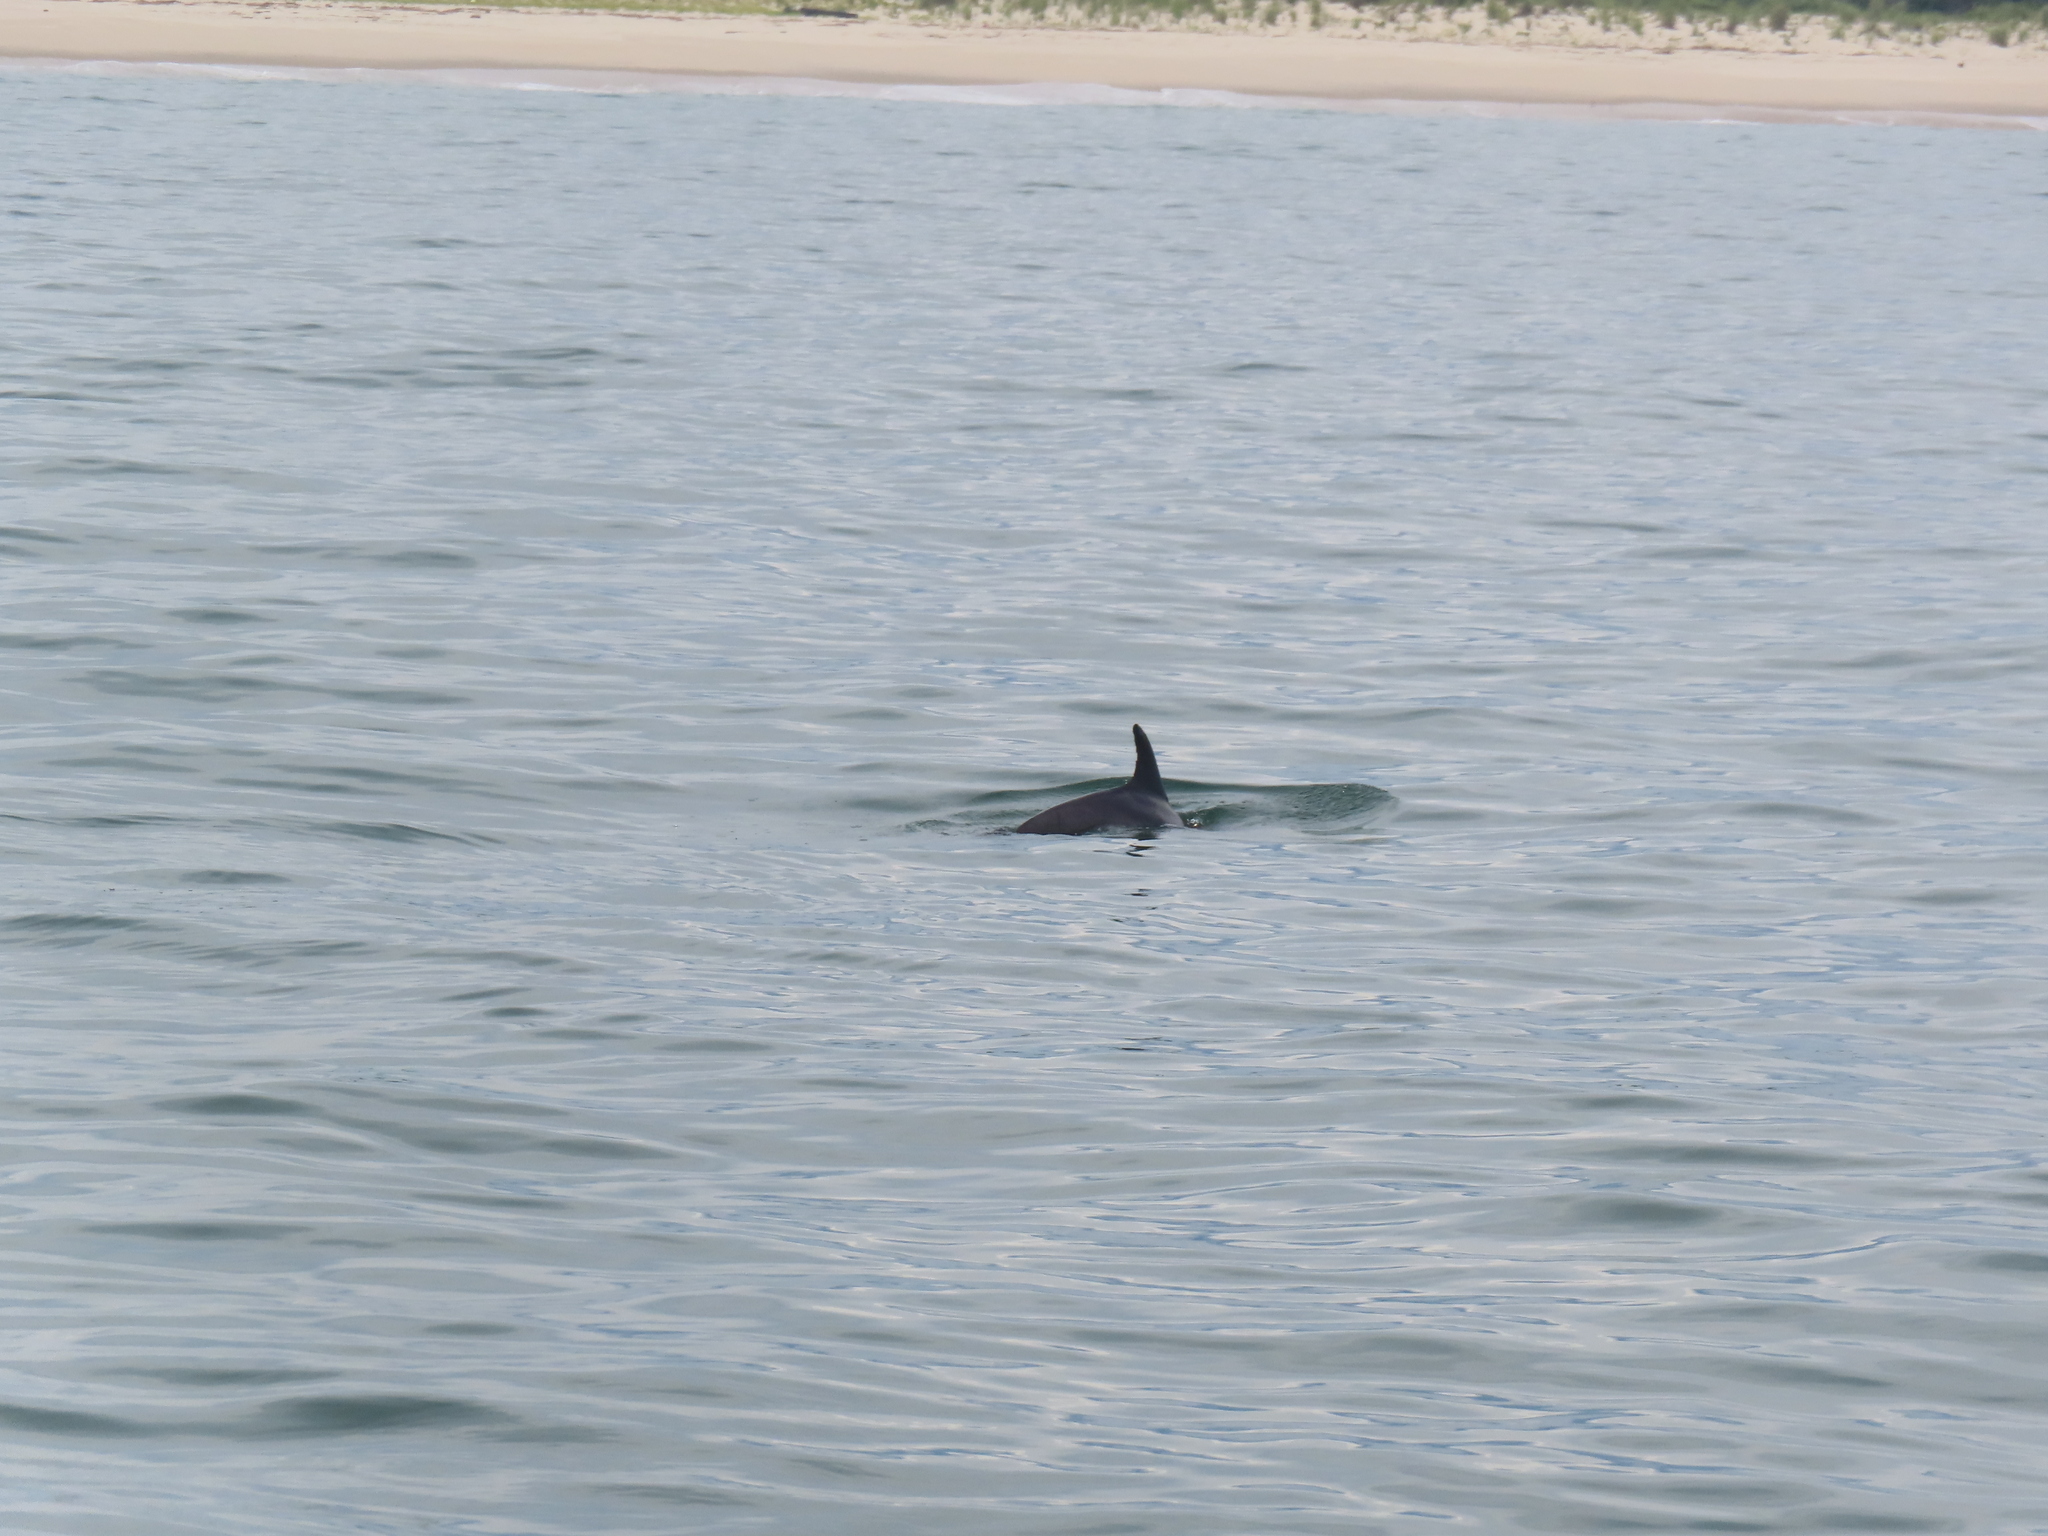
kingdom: Animalia
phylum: Chordata
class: Mammalia
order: Cetacea
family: Delphinidae
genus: Tursiops
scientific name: Tursiops truncatus
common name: Bottlenose dolphin
